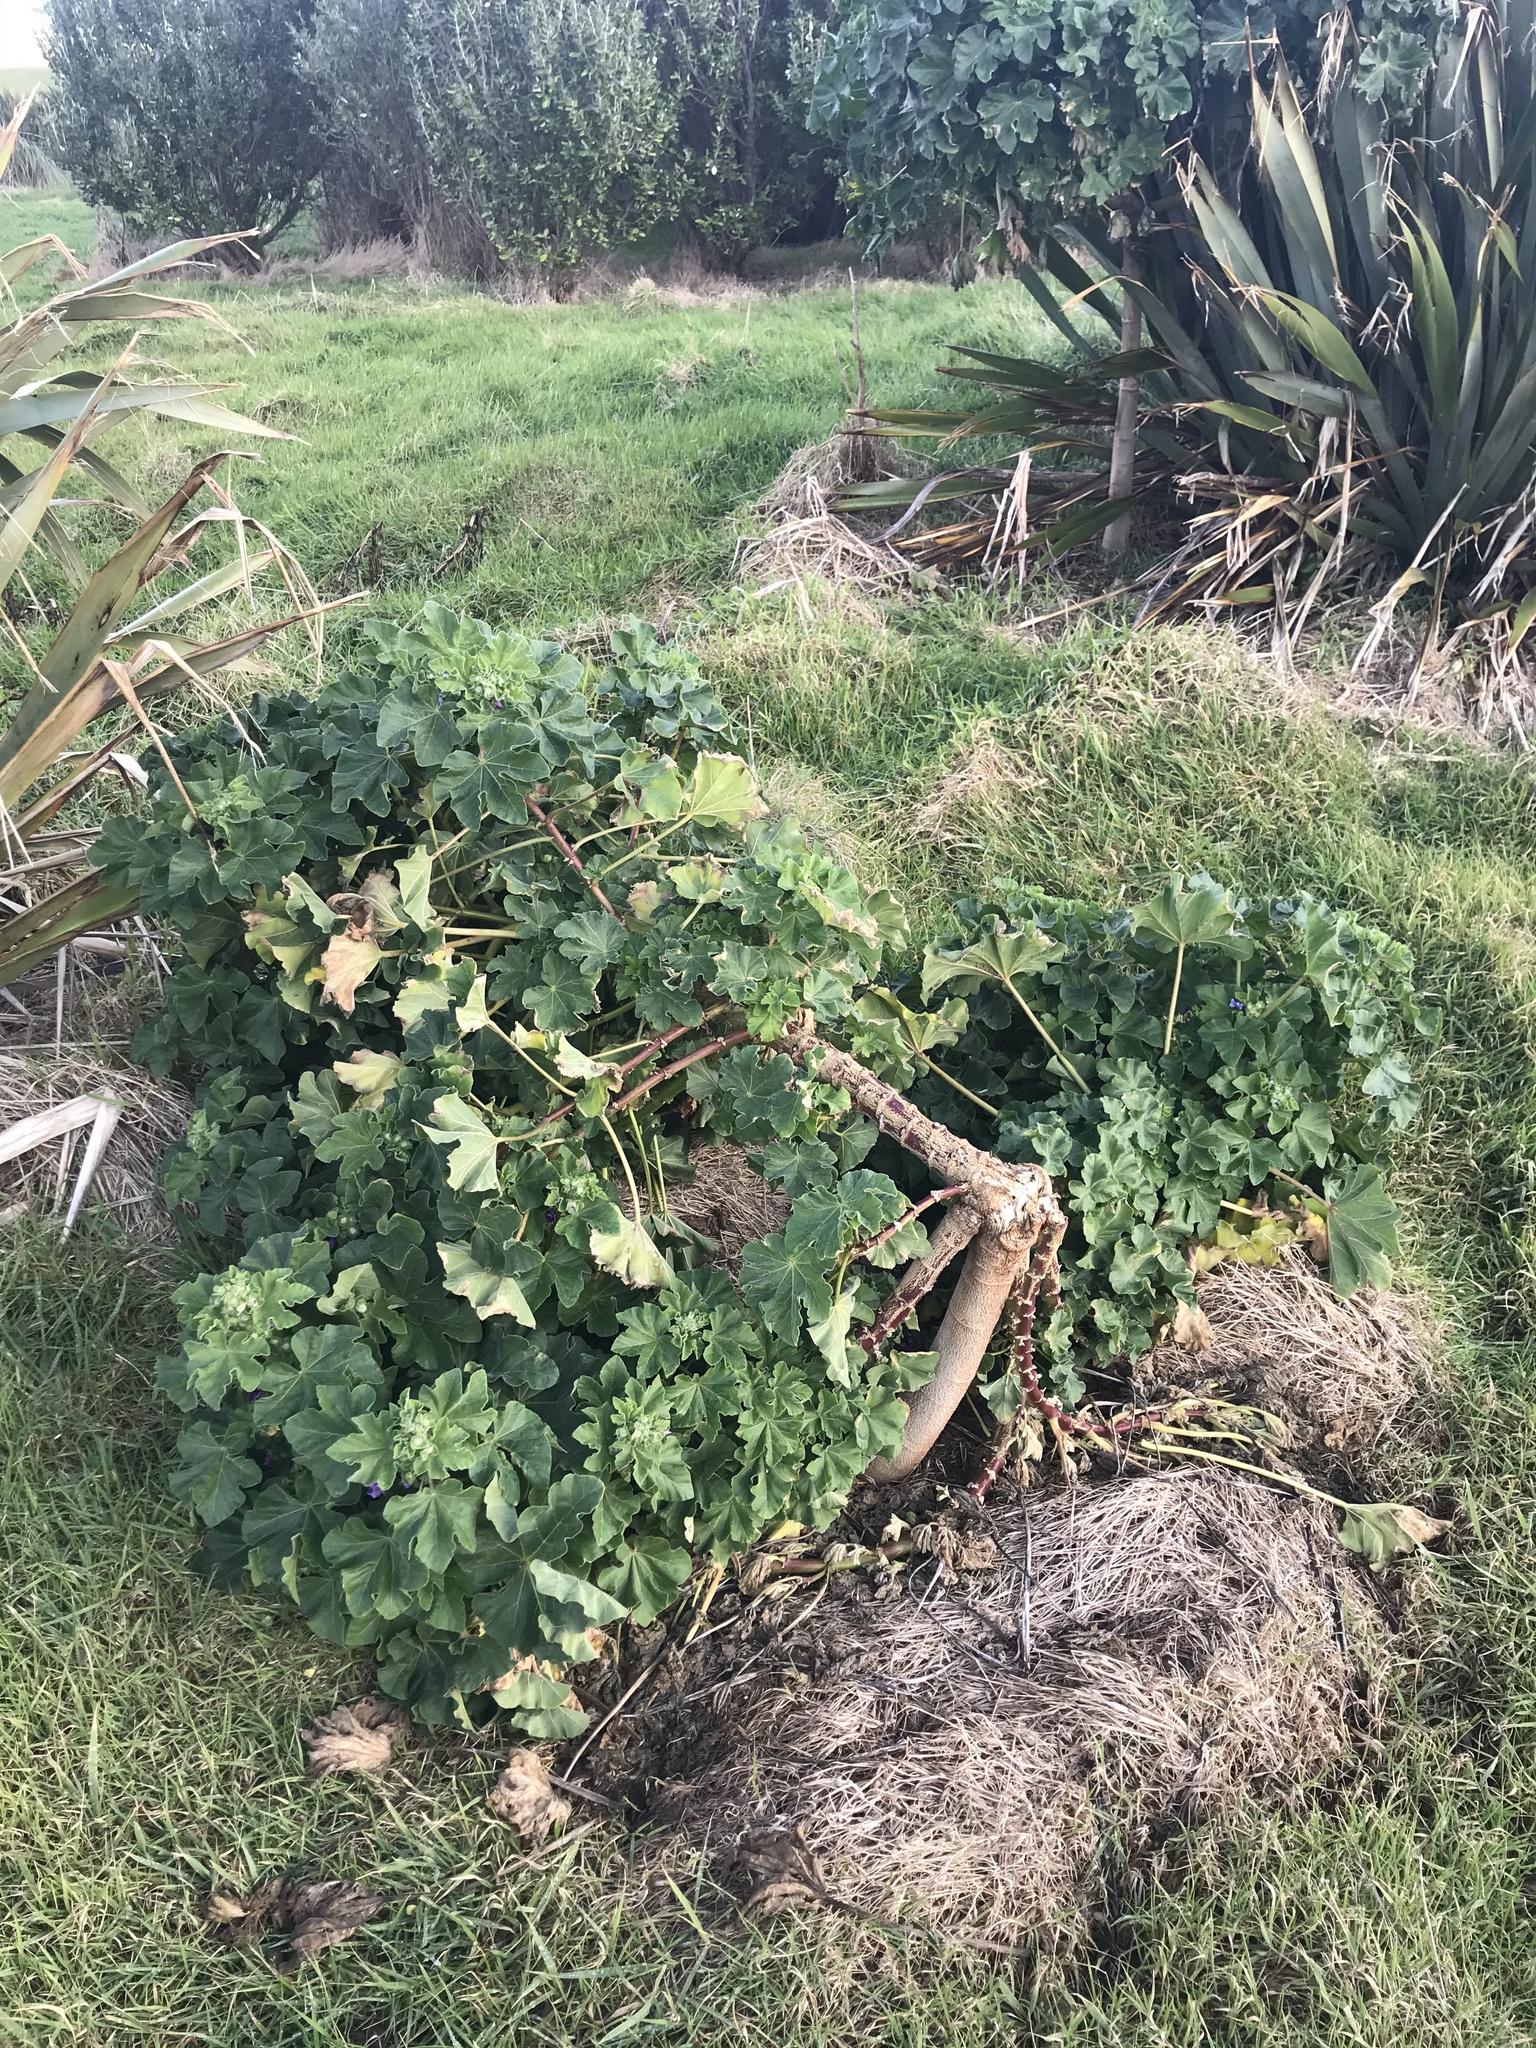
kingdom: Plantae
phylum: Tracheophyta
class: Magnoliopsida
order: Malvales
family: Malvaceae
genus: Malva
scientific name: Malva arborea
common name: Tree mallow
